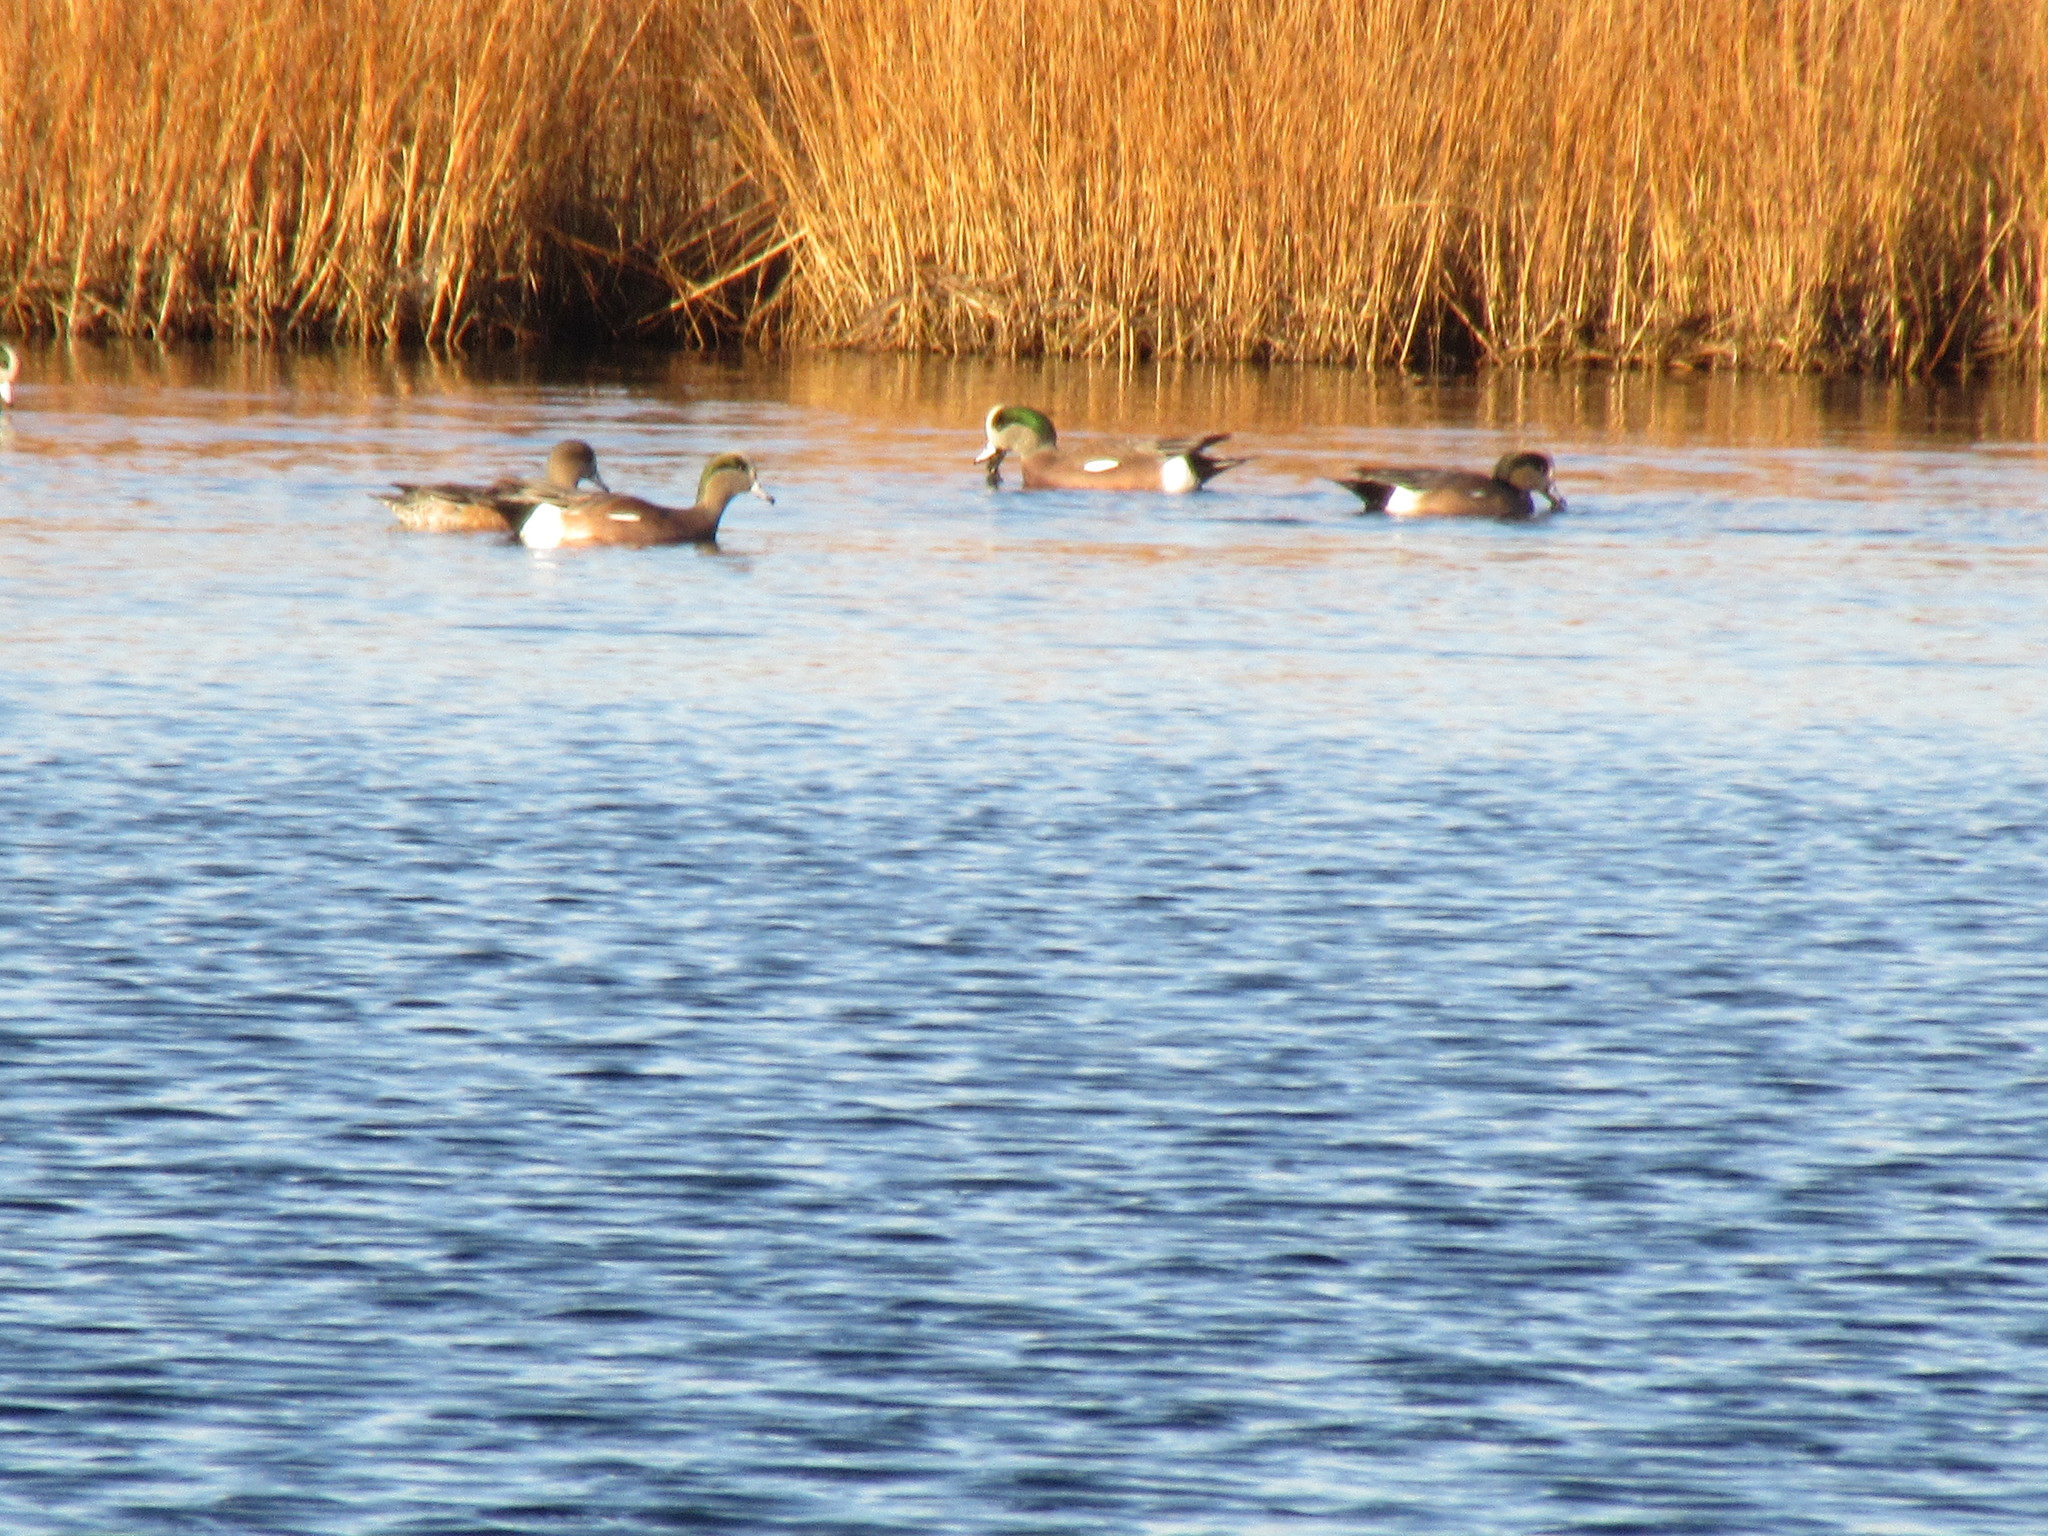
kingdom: Animalia
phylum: Chordata
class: Aves
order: Anseriformes
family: Anatidae
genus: Mareca
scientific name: Mareca americana
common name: American wigeon
